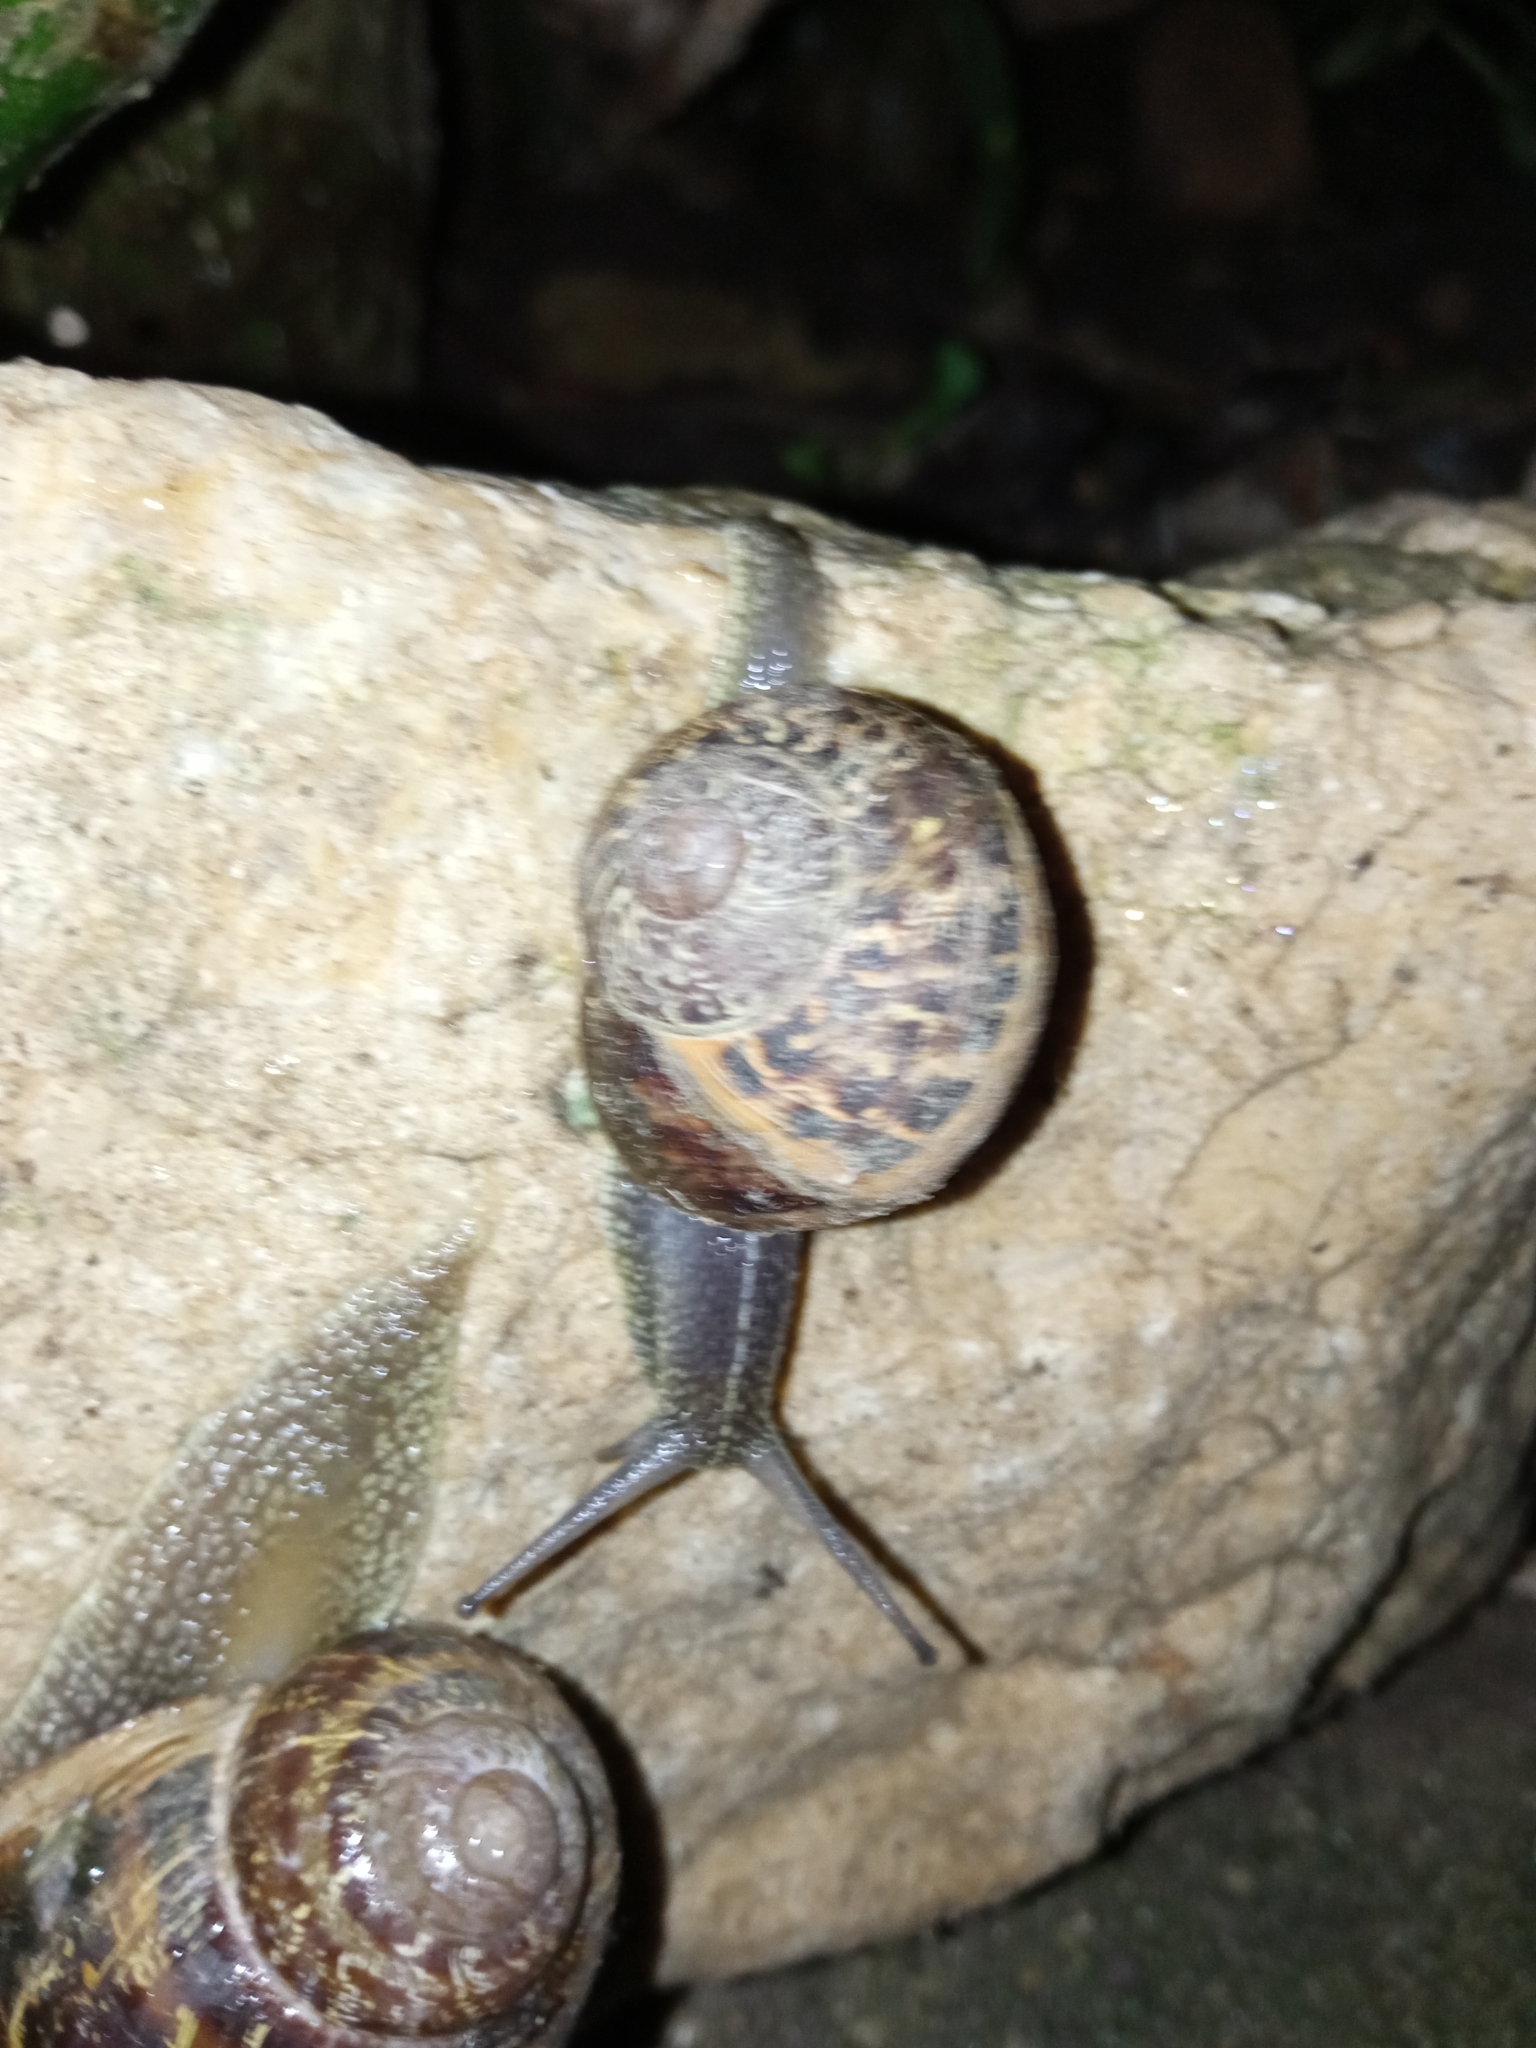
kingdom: Animalia
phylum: Mollusca
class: Gastropoda
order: Stylommatophora
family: Helicidae
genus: Cornu
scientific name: Cornu aspersum
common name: Brown garden snail
